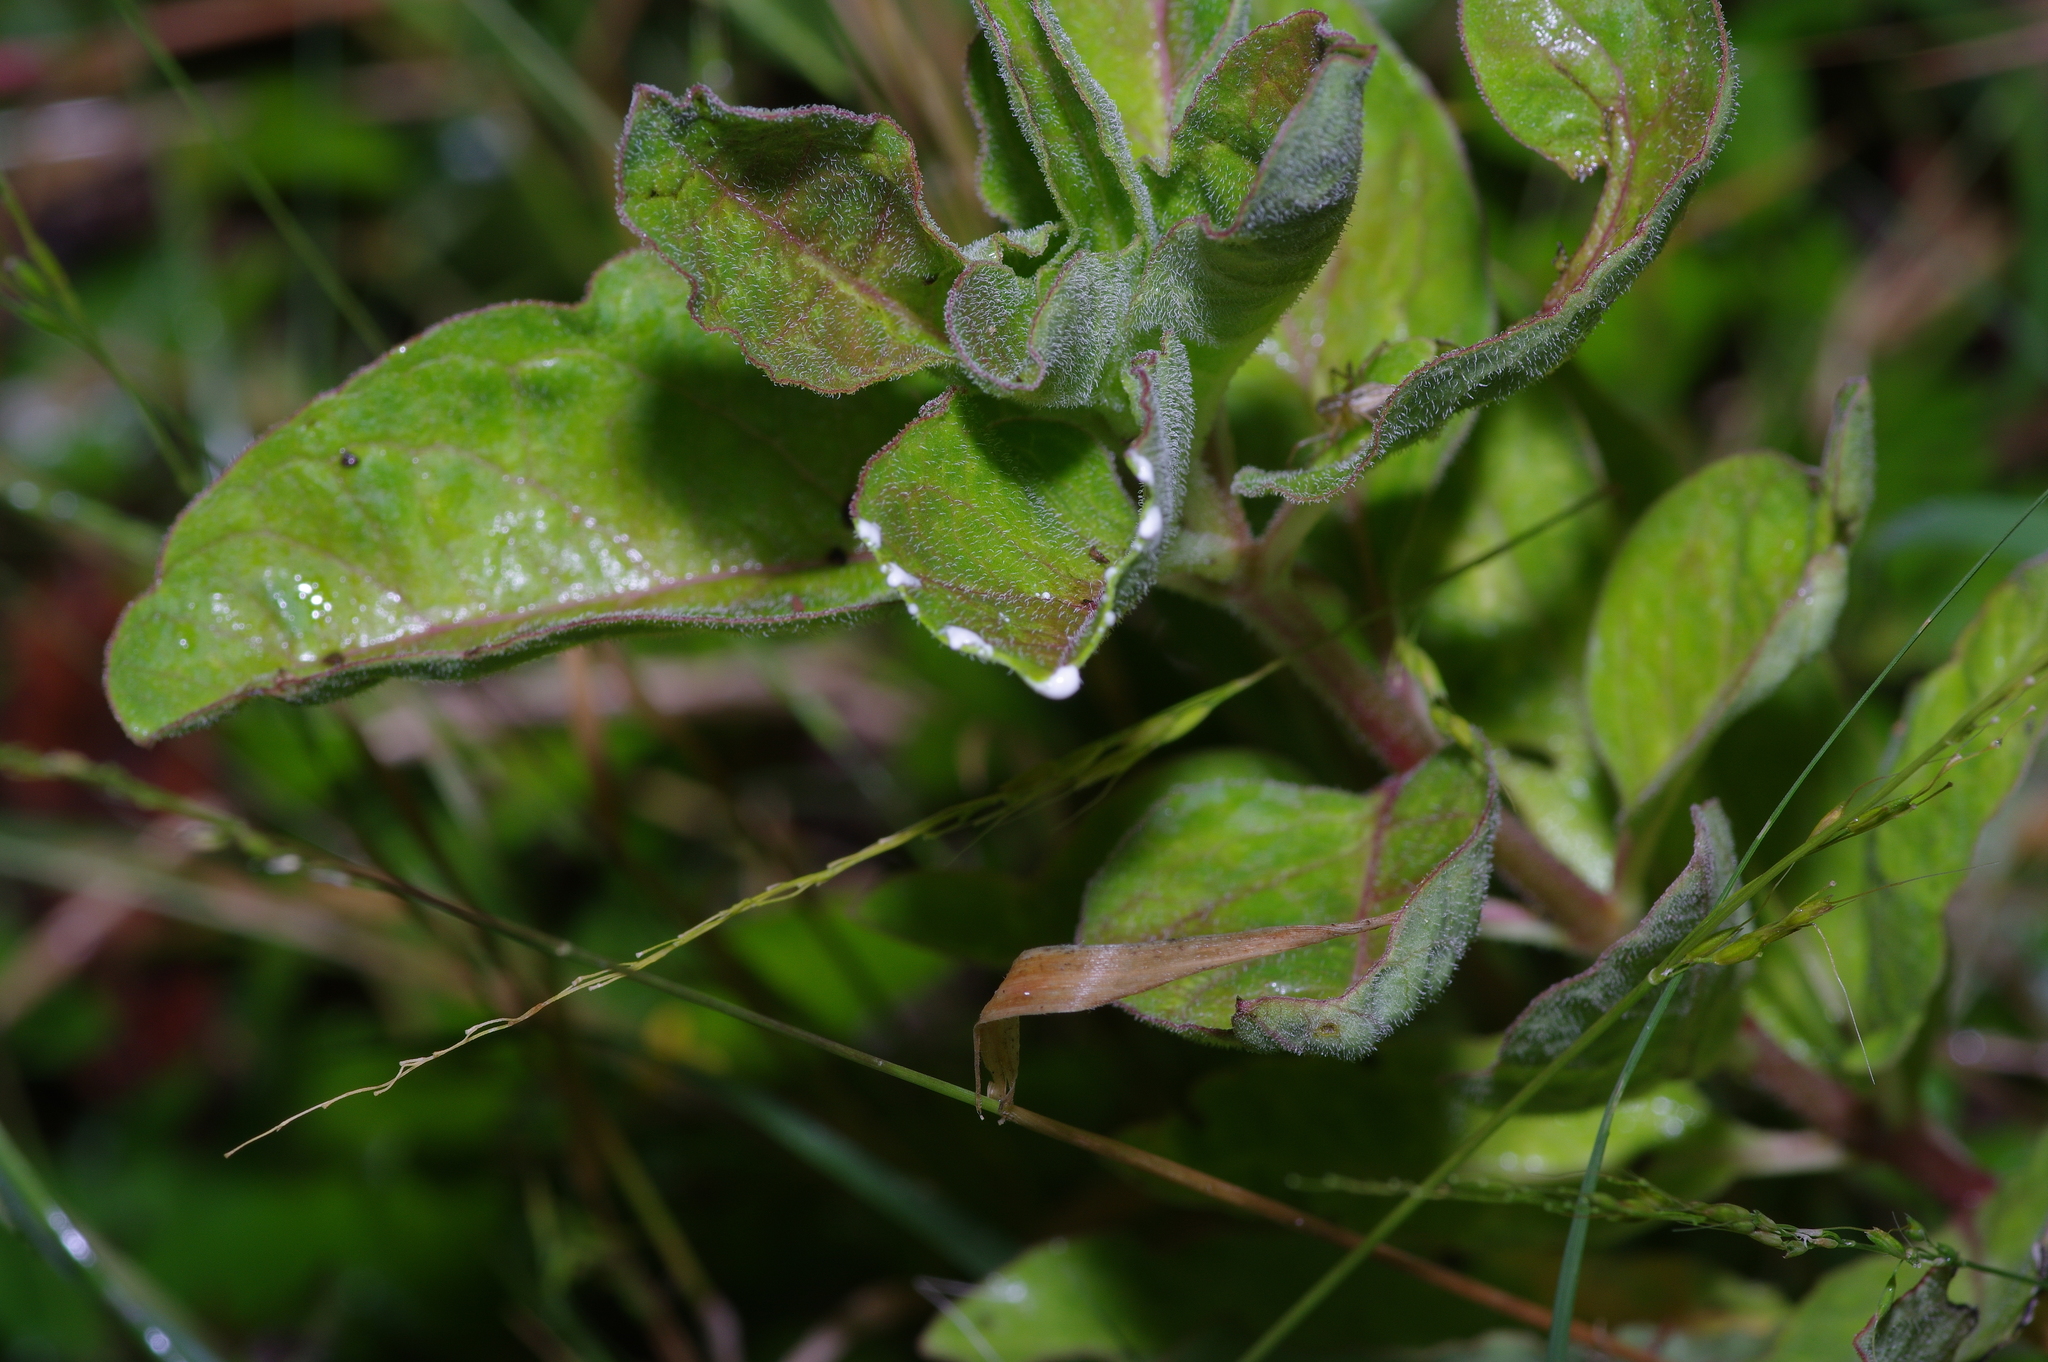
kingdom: Plantae
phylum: Tracheophyta
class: Magnoliopsida
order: Gentianales
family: Apocynaceae
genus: Asclepias
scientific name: Asclepias oenotheroides
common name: Zizotes milkweed
